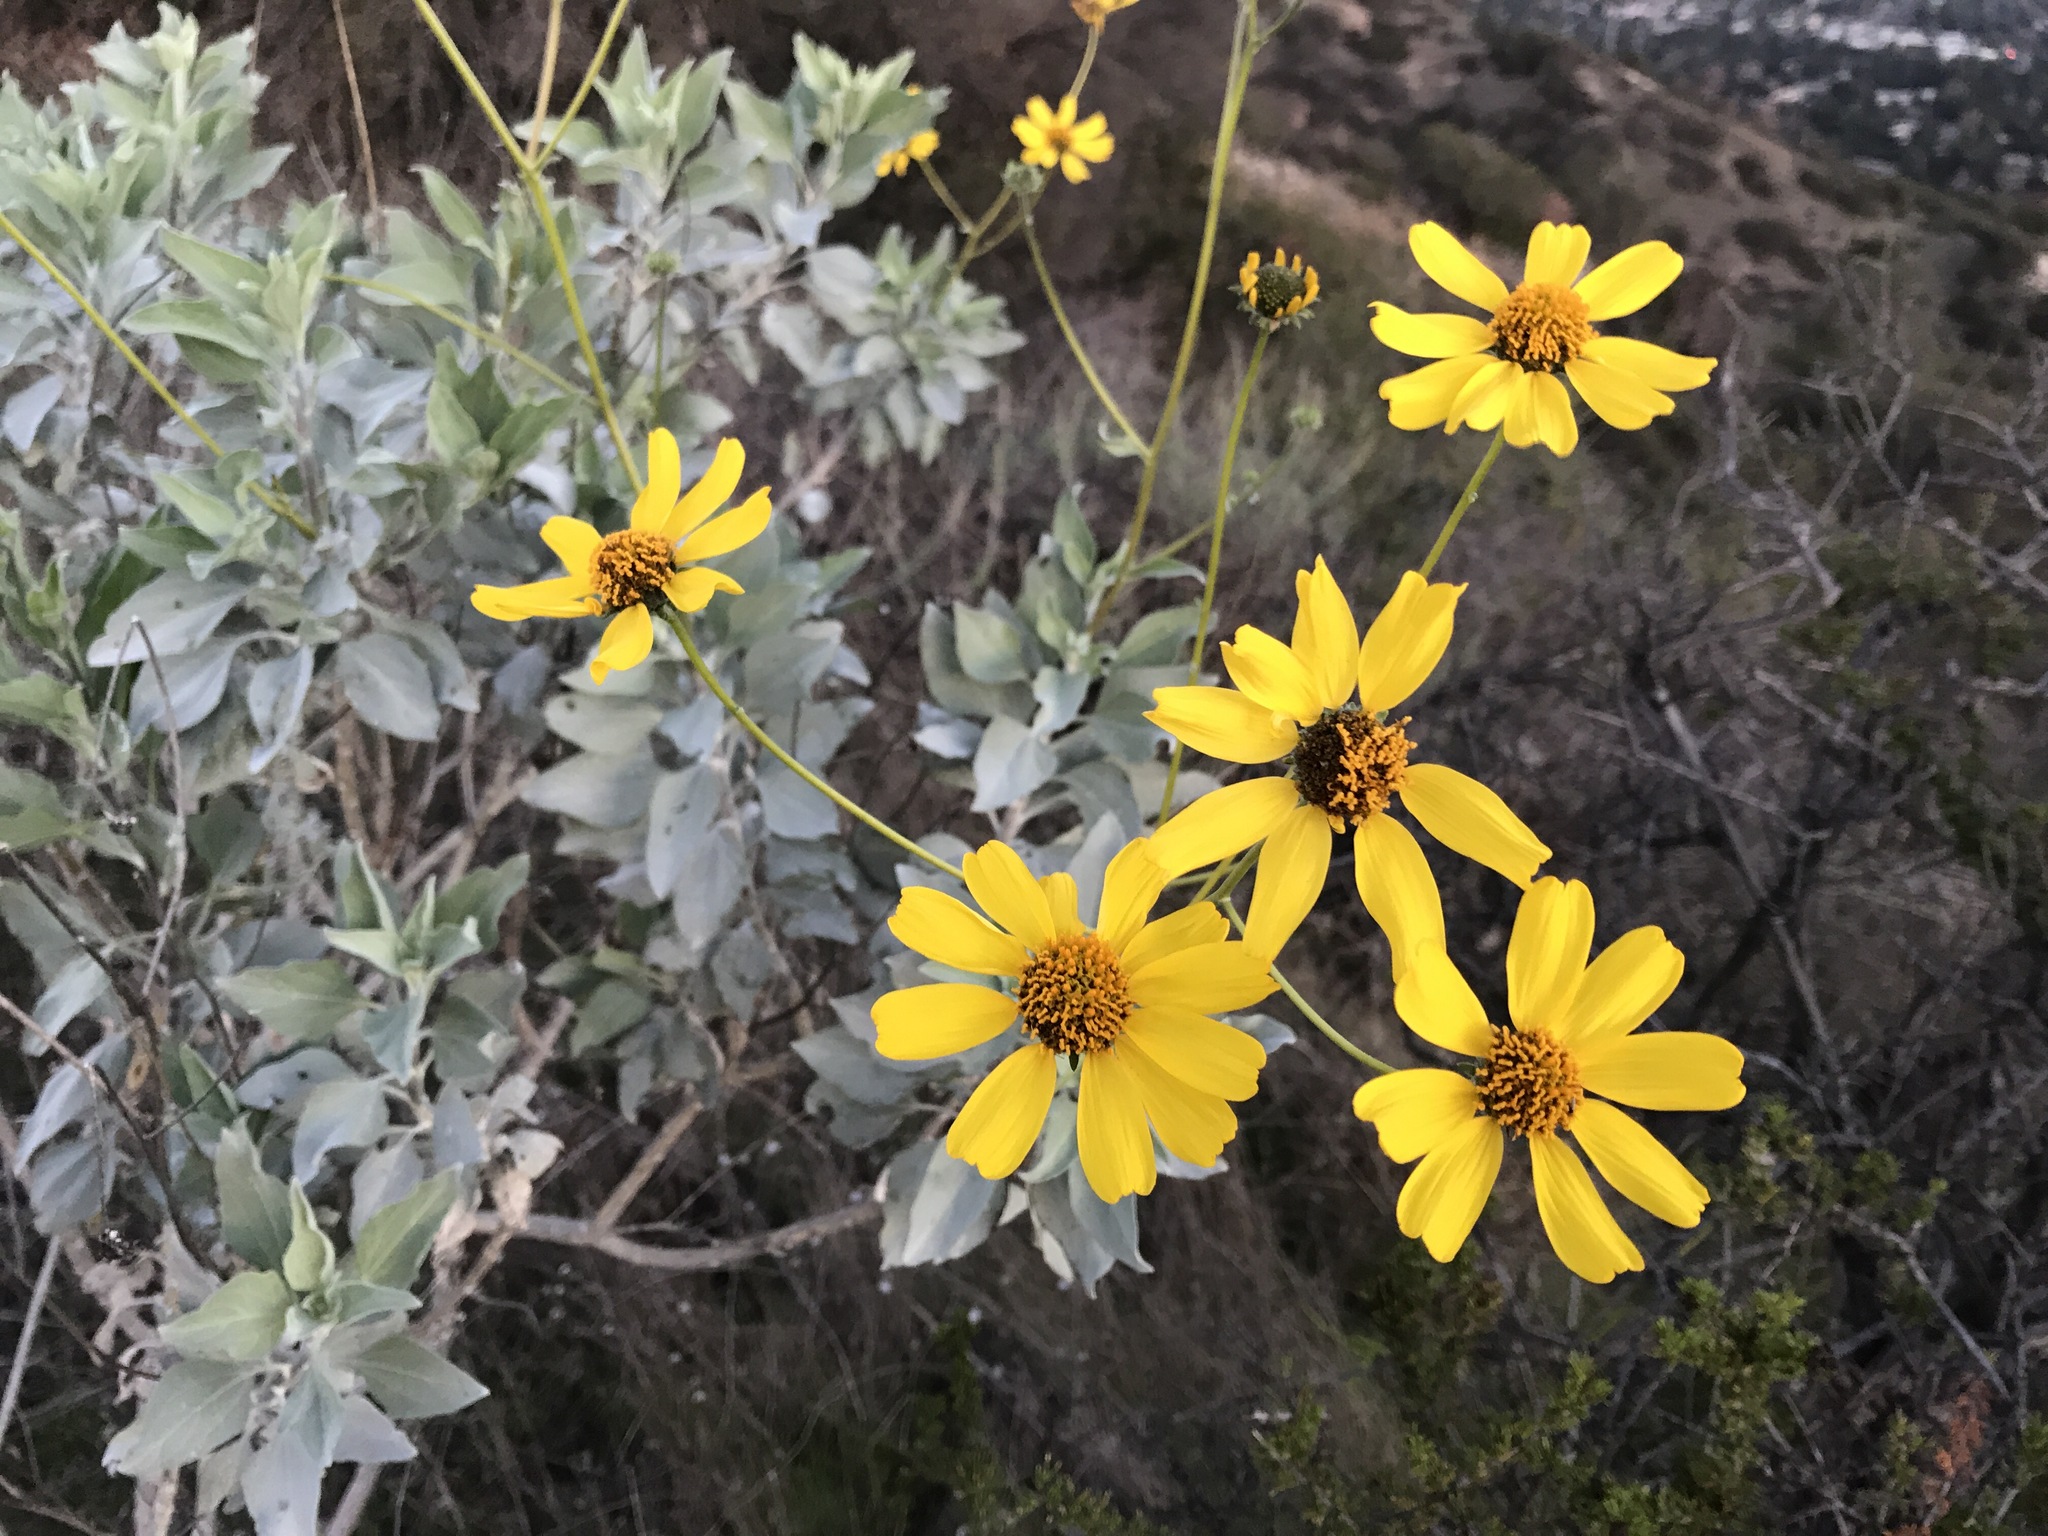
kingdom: Plantae
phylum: Tracheophyta
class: Magnoliopsida
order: Asterales
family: Asteraceae
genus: Encelia
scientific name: Encelia farinosa
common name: Brittlebush
